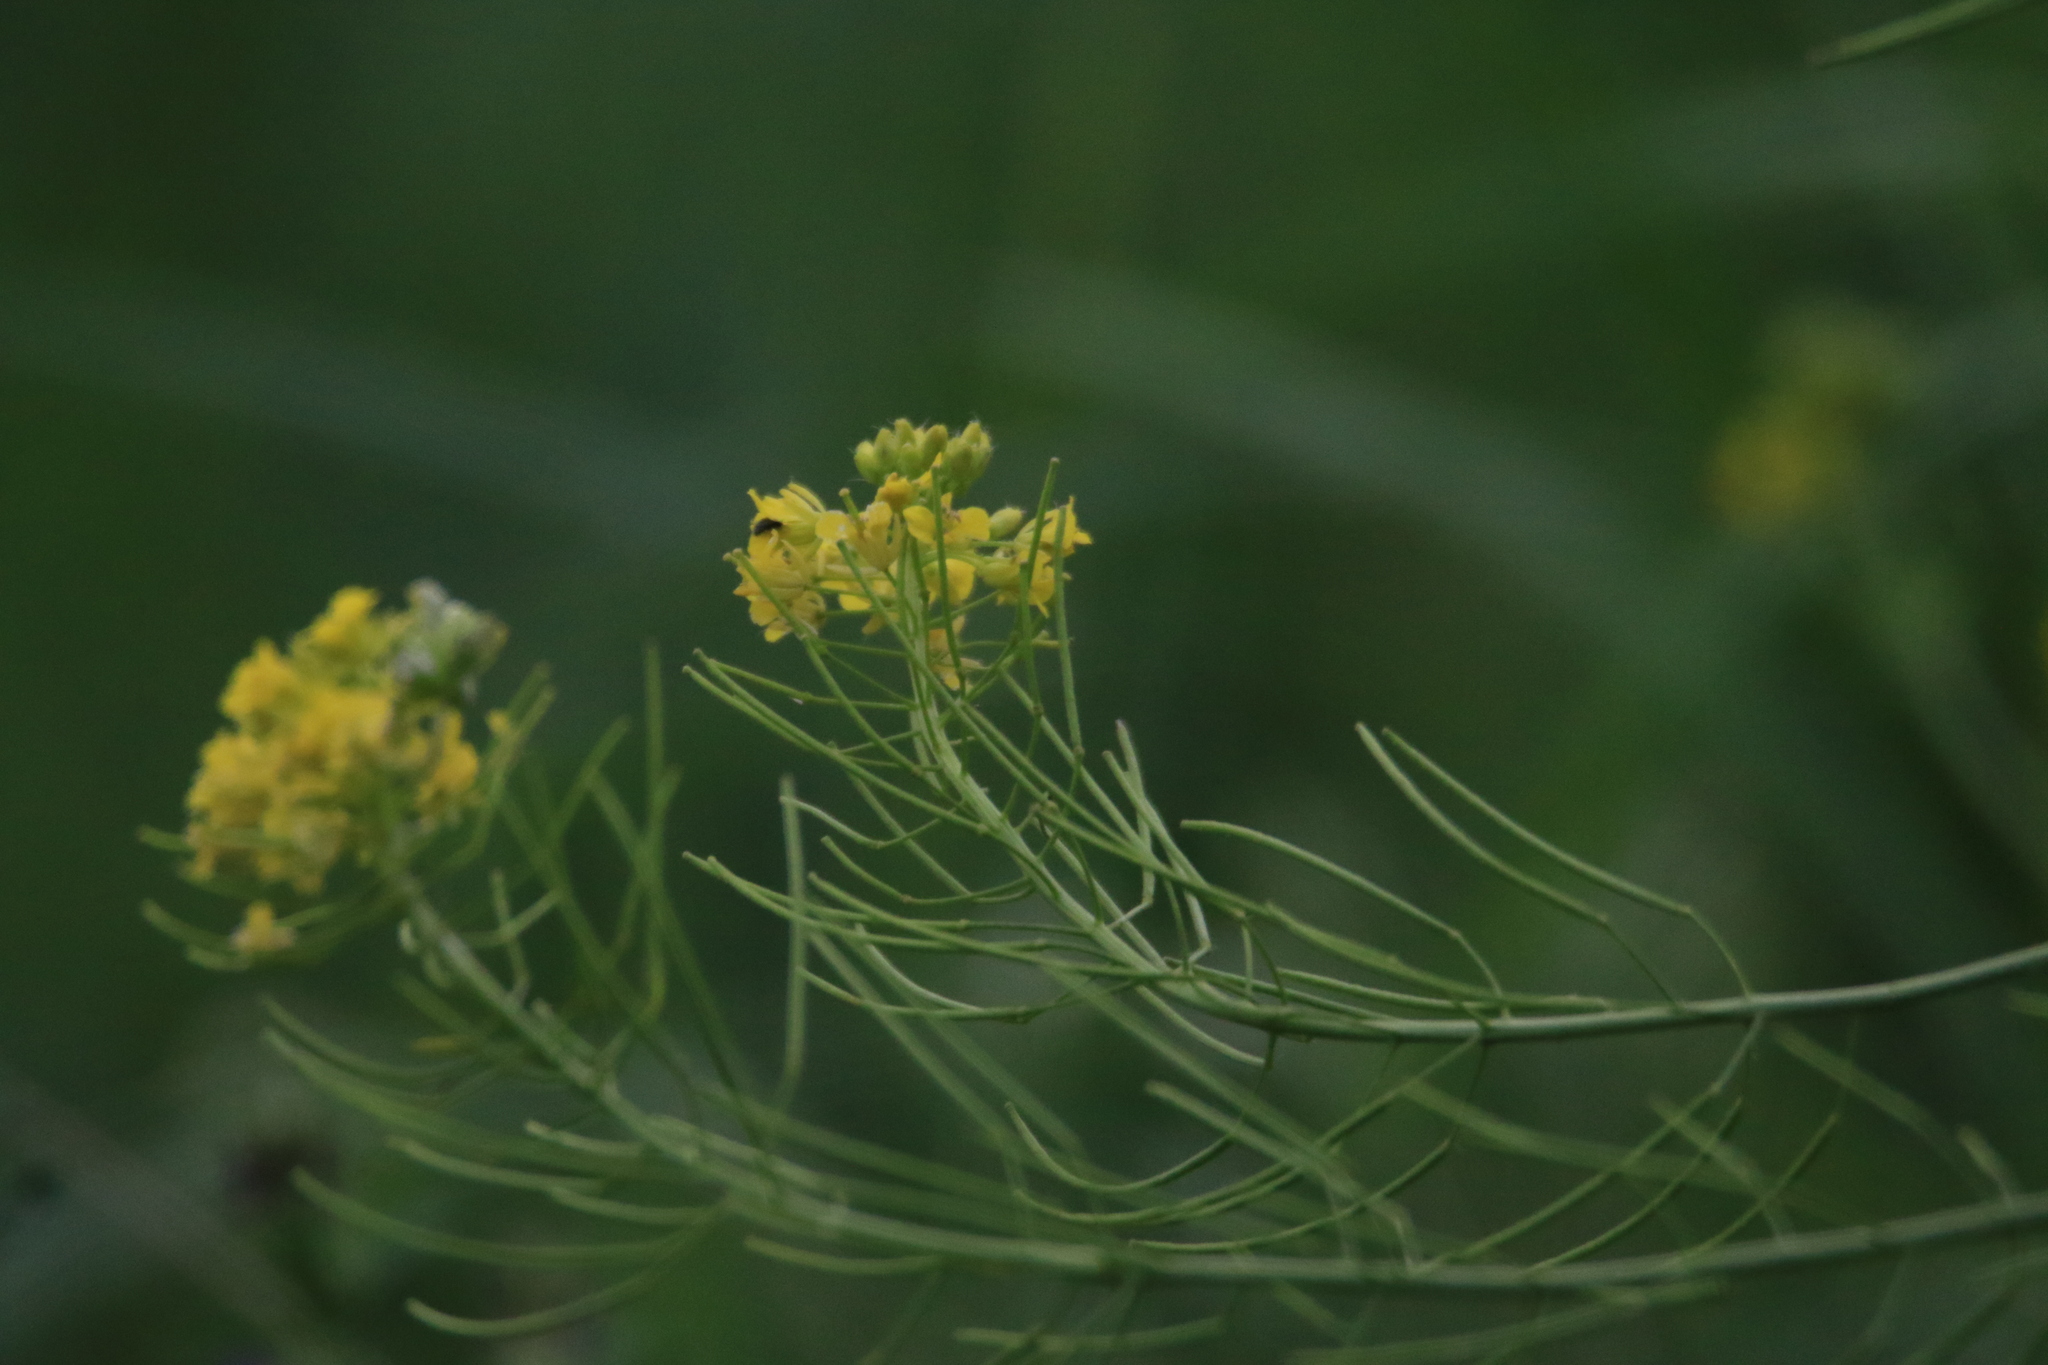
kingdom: Plantae
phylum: Tracheophyta
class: Magnoliopsida
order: Brassicales
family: Brassicaceae
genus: Sisymbrium
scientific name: Sisymbrium loeselii
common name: False london-rocket
